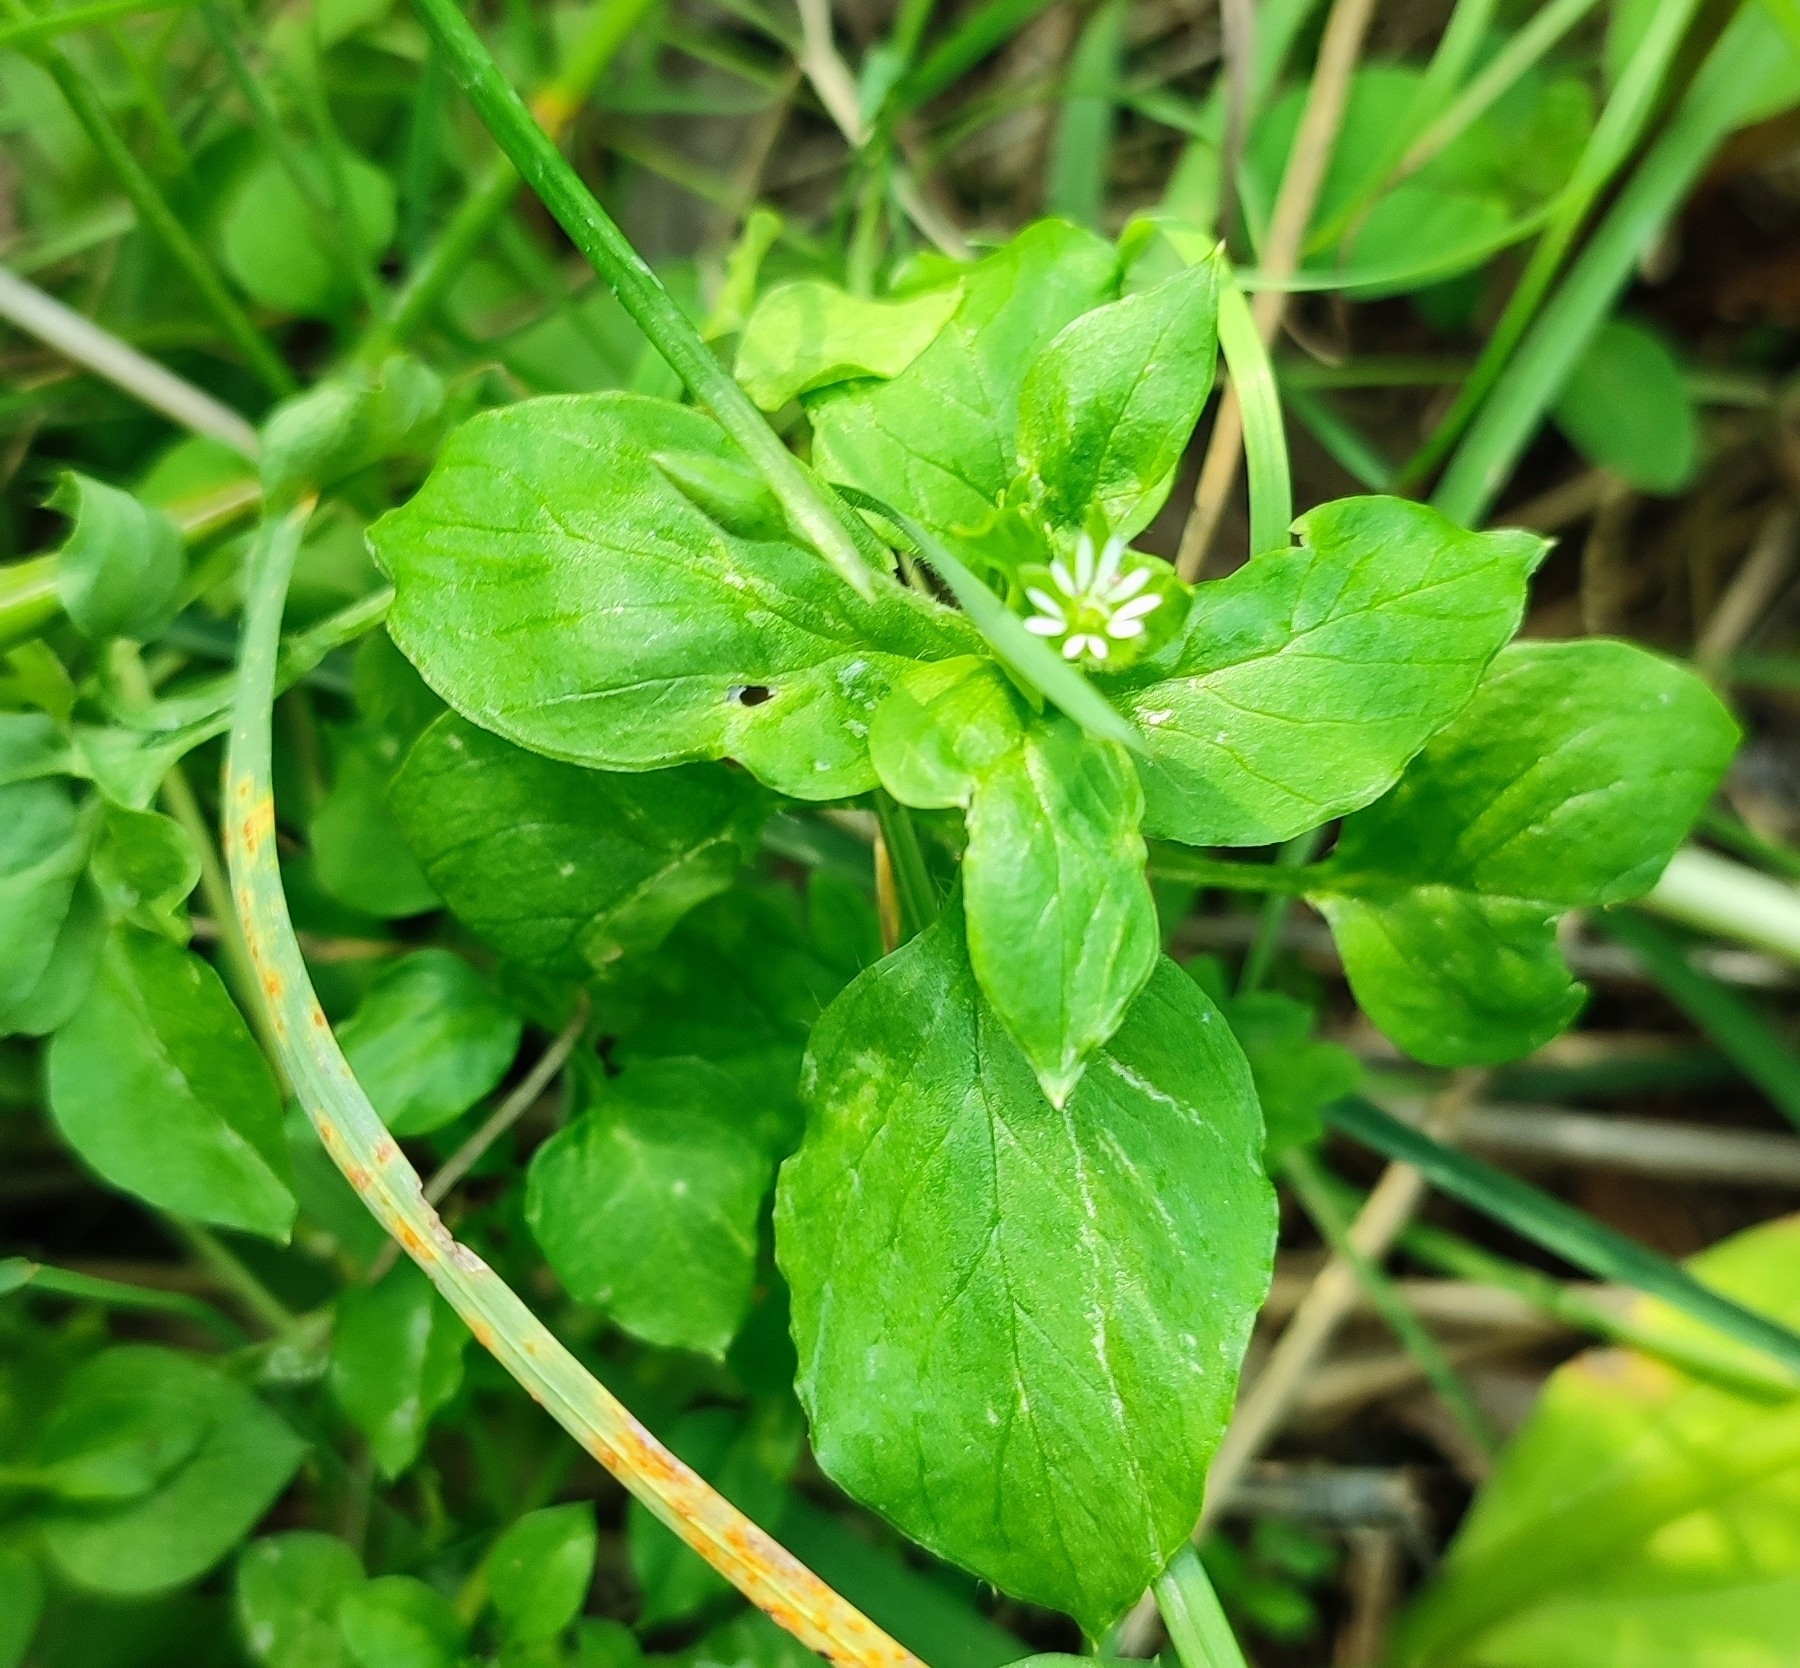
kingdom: Plantae
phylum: Tracheophyta
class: Magnoliopsida
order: Caryophyllales
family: Caryophyllaceae
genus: Stellaria
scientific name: Stellaria media
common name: Common chickweed
